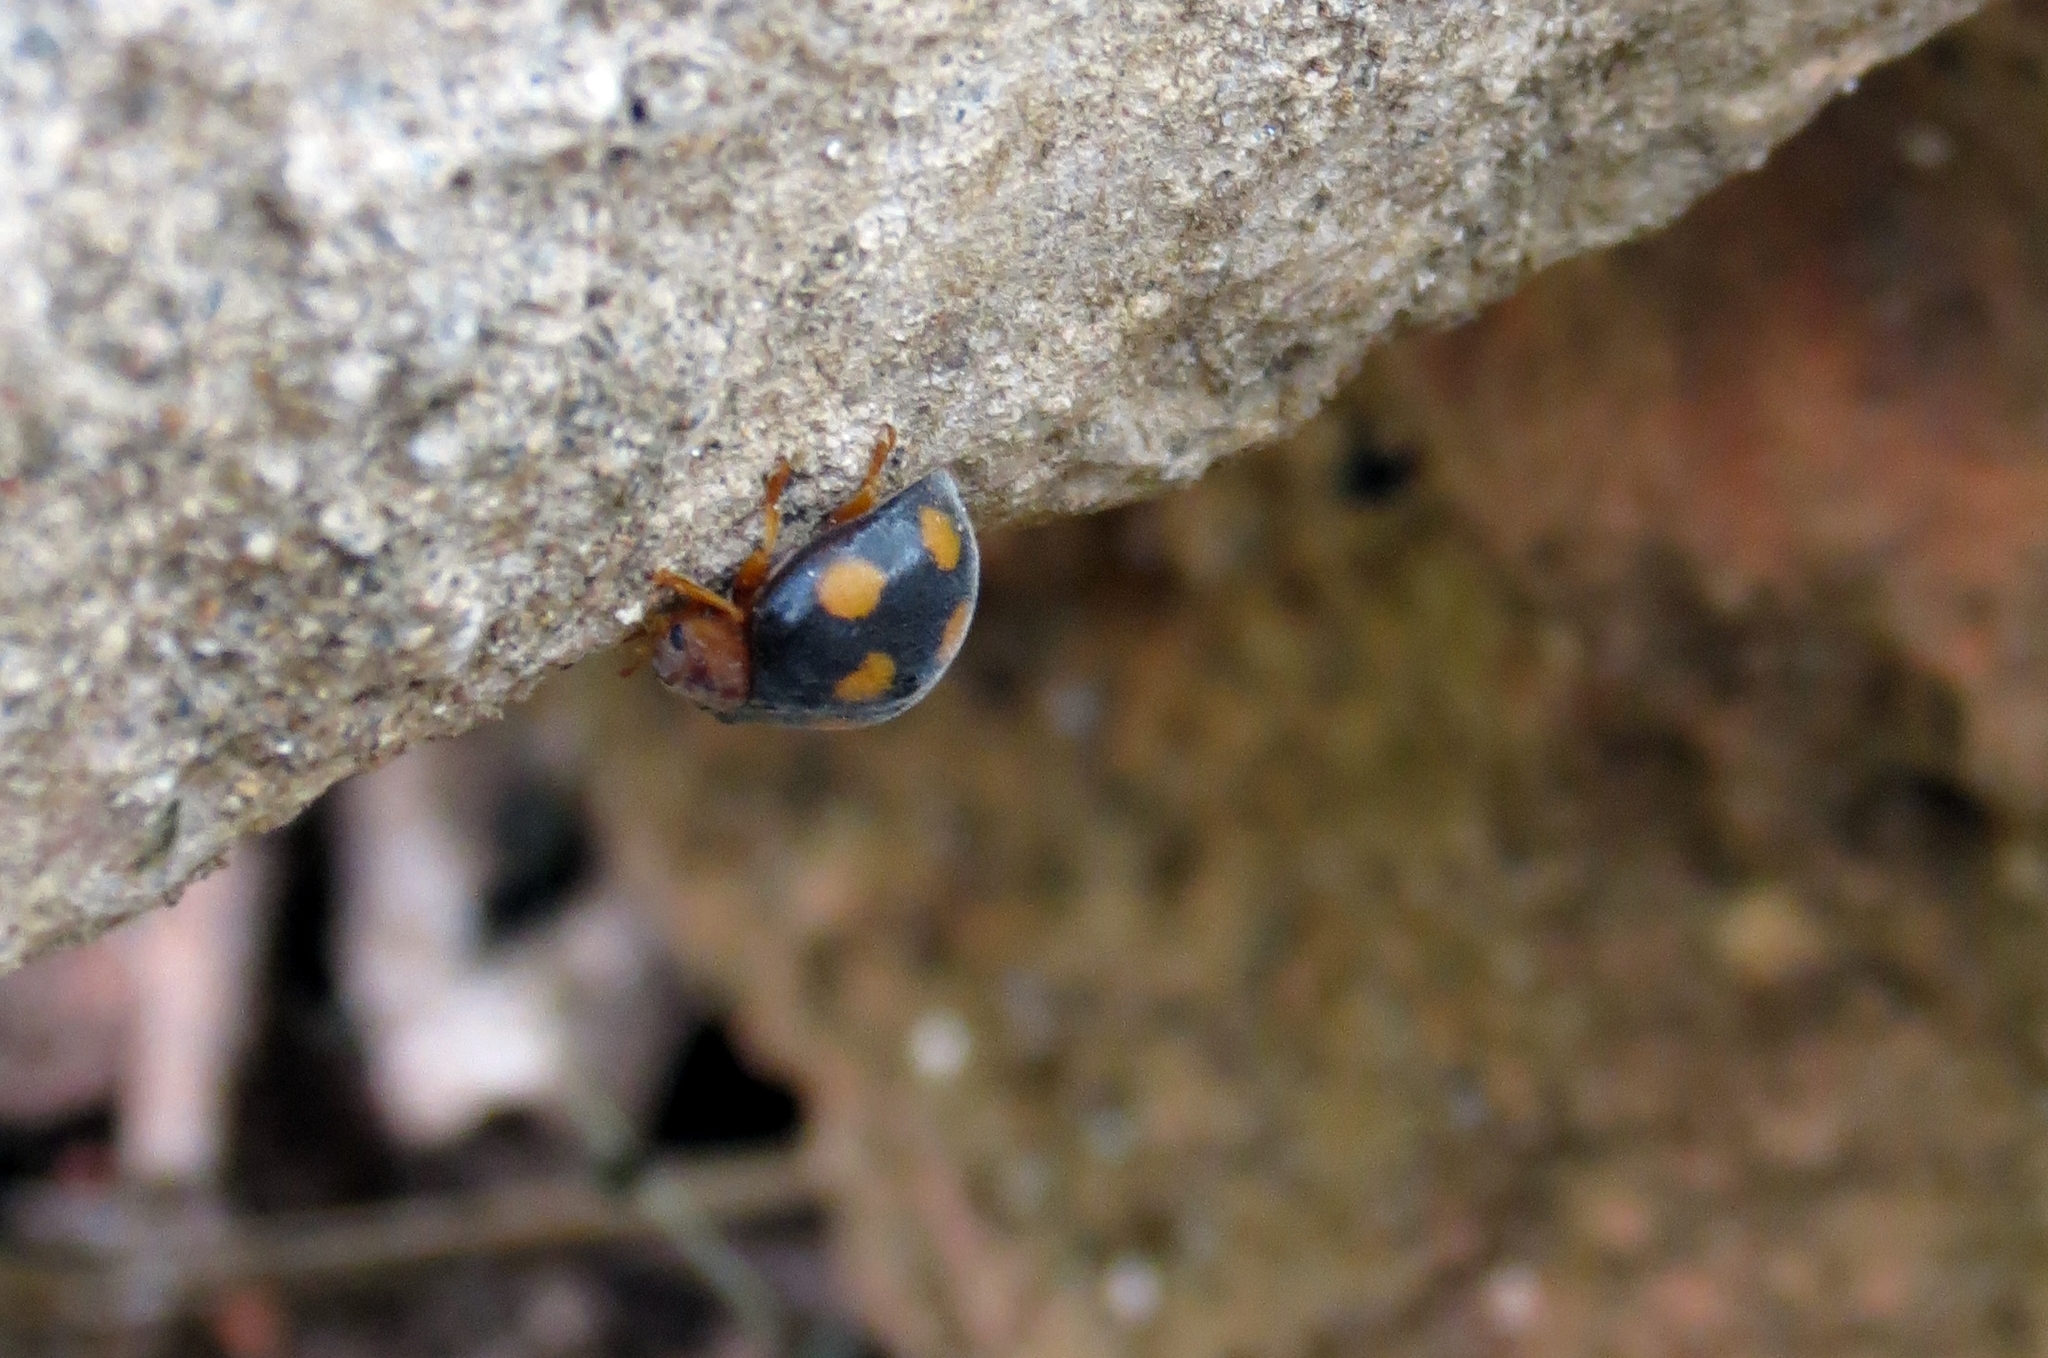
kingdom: Animalia
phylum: Arthropoda
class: Insecta
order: Coleoptera
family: Coccinellidae
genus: Epilachna
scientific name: Epilachna
